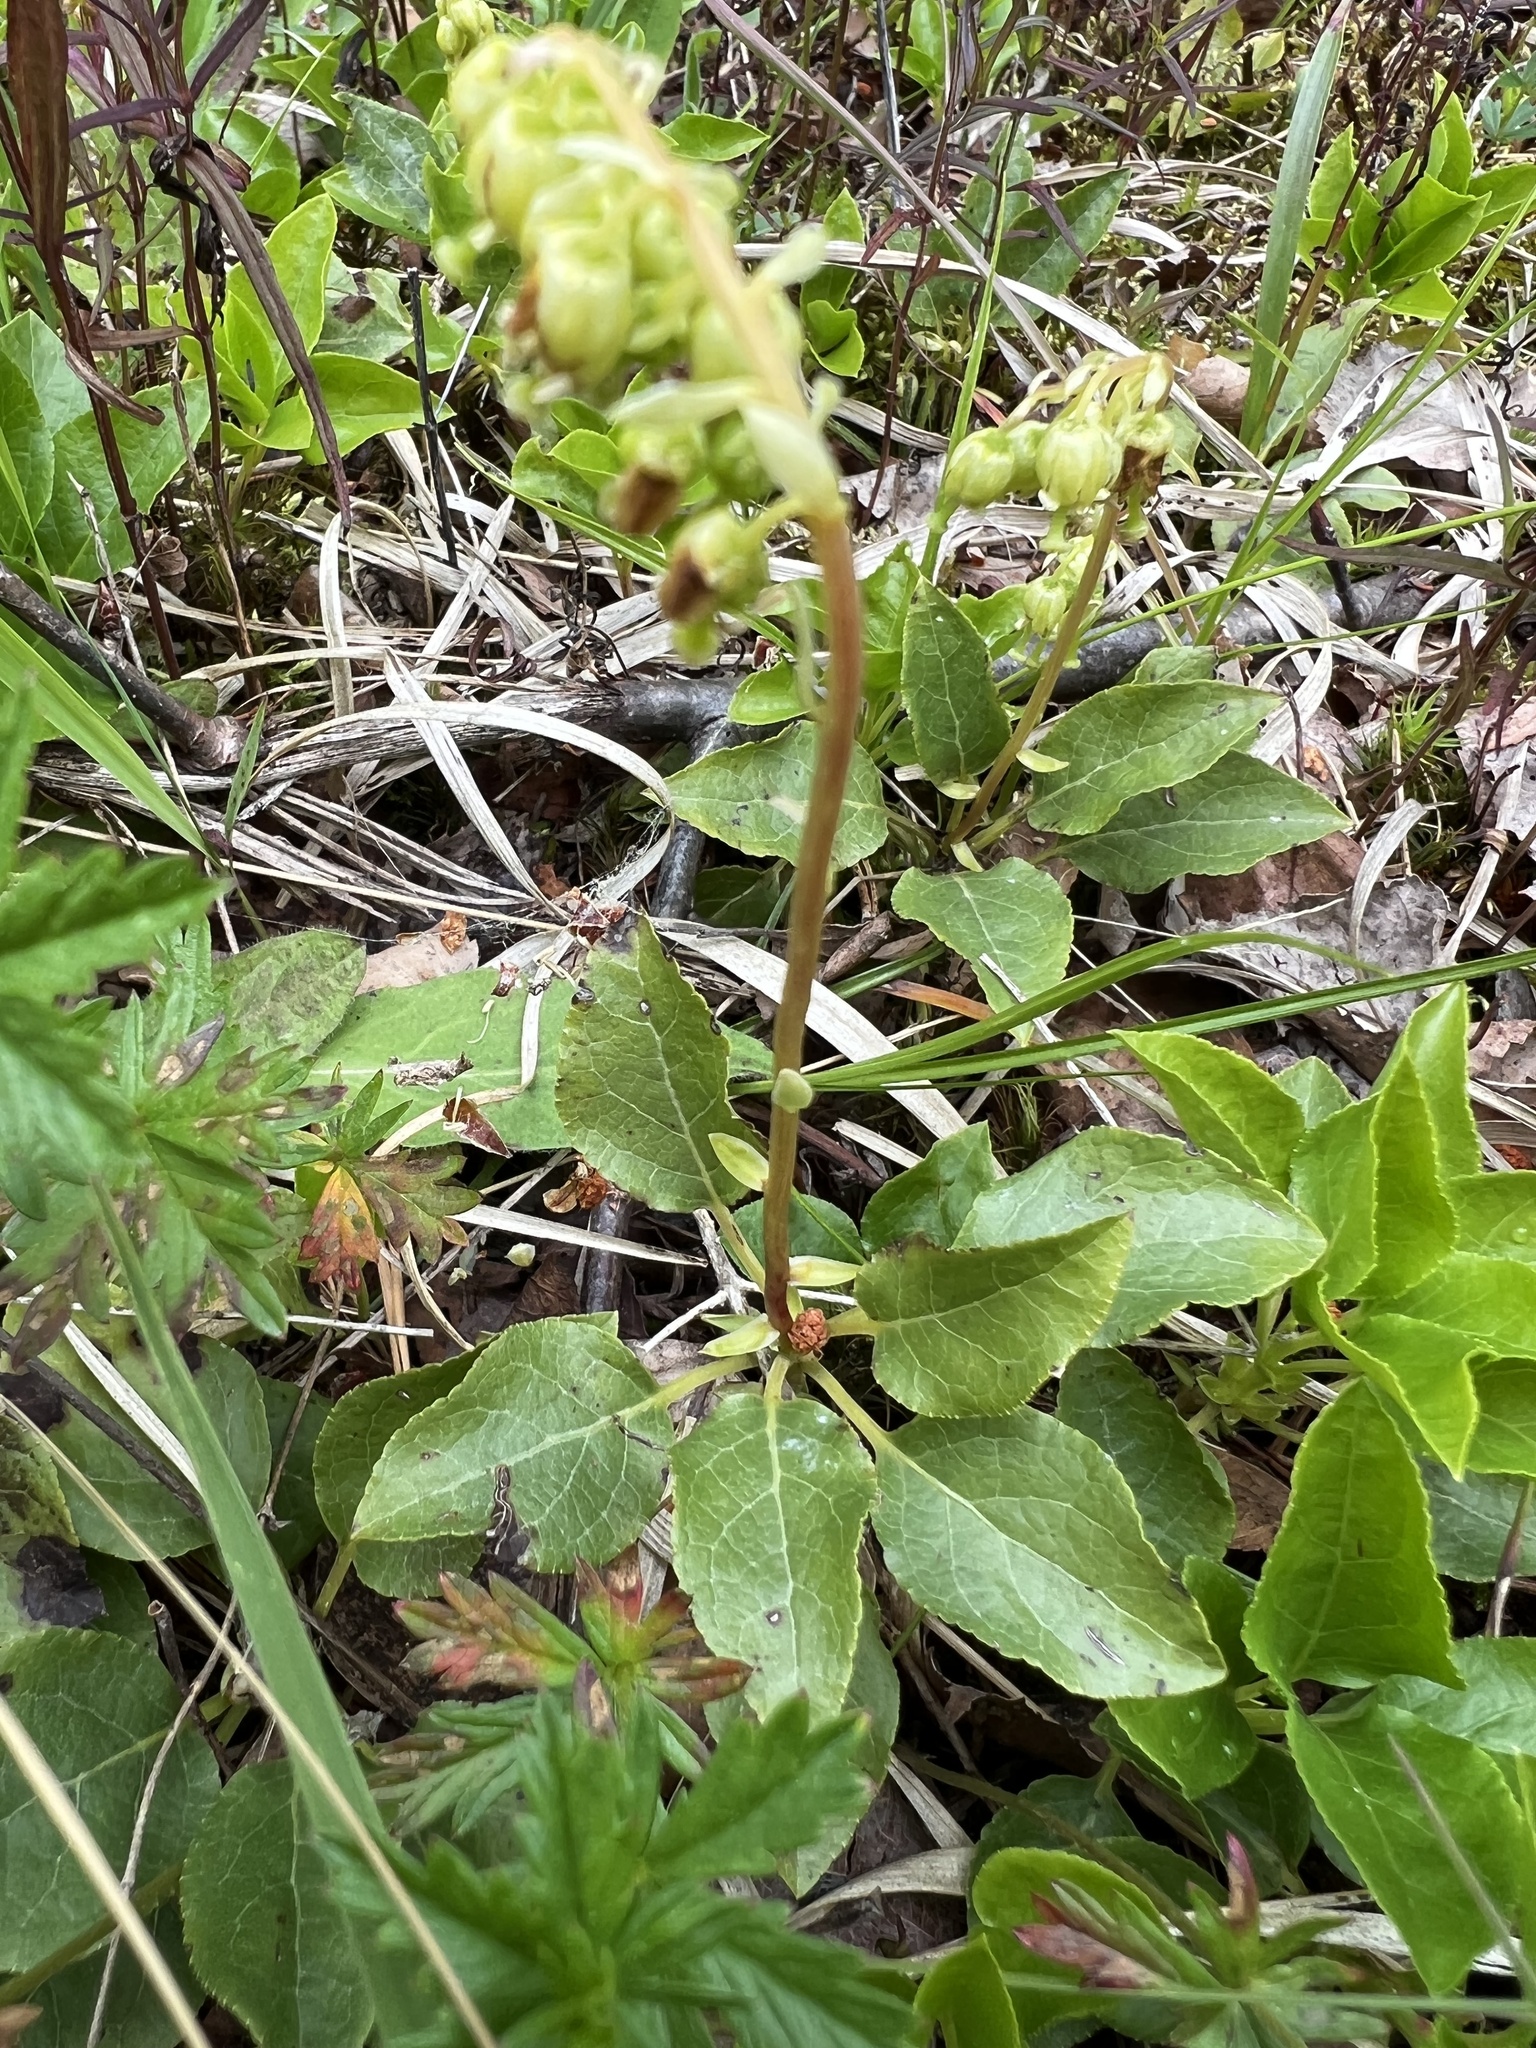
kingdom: Plantae
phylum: Tracheophyta
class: Magnoliopsida
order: Ericales
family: Ericaceae
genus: Orthilia
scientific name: Orthilia secunda
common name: One-sided orthilia
